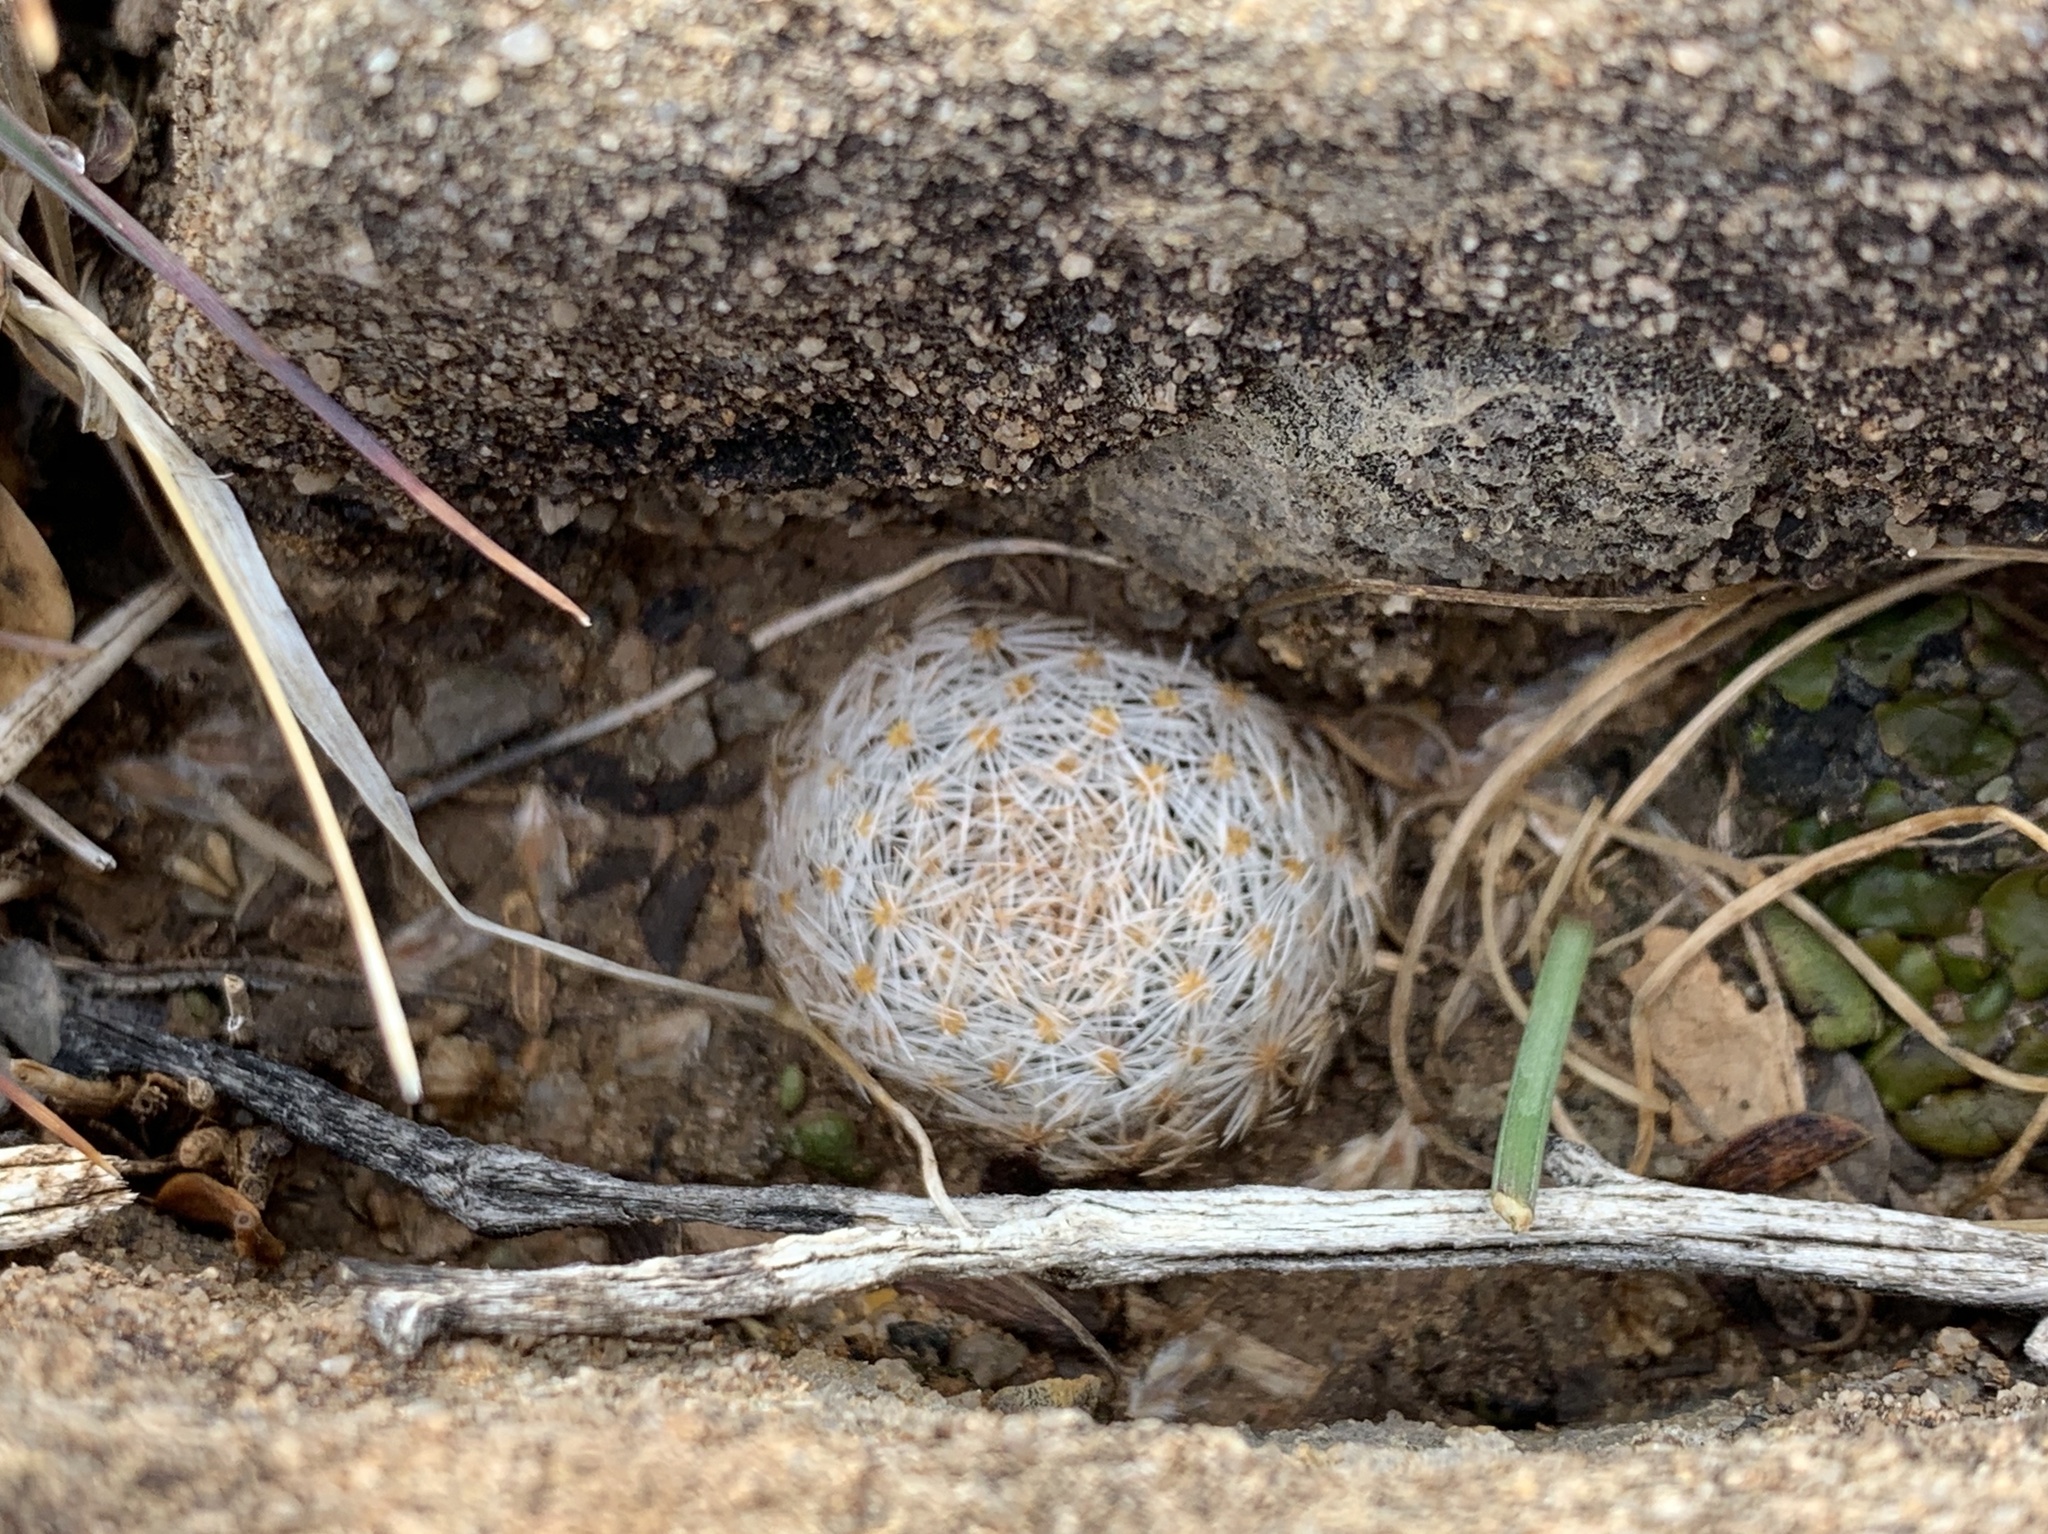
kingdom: Plantae
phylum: Tracheophyta
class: Magnoliopsida
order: Caryophyllales
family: Cactaceae
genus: Mammillaria
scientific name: Mammillaria lasiacantha
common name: Lace-spine nipple cactus
